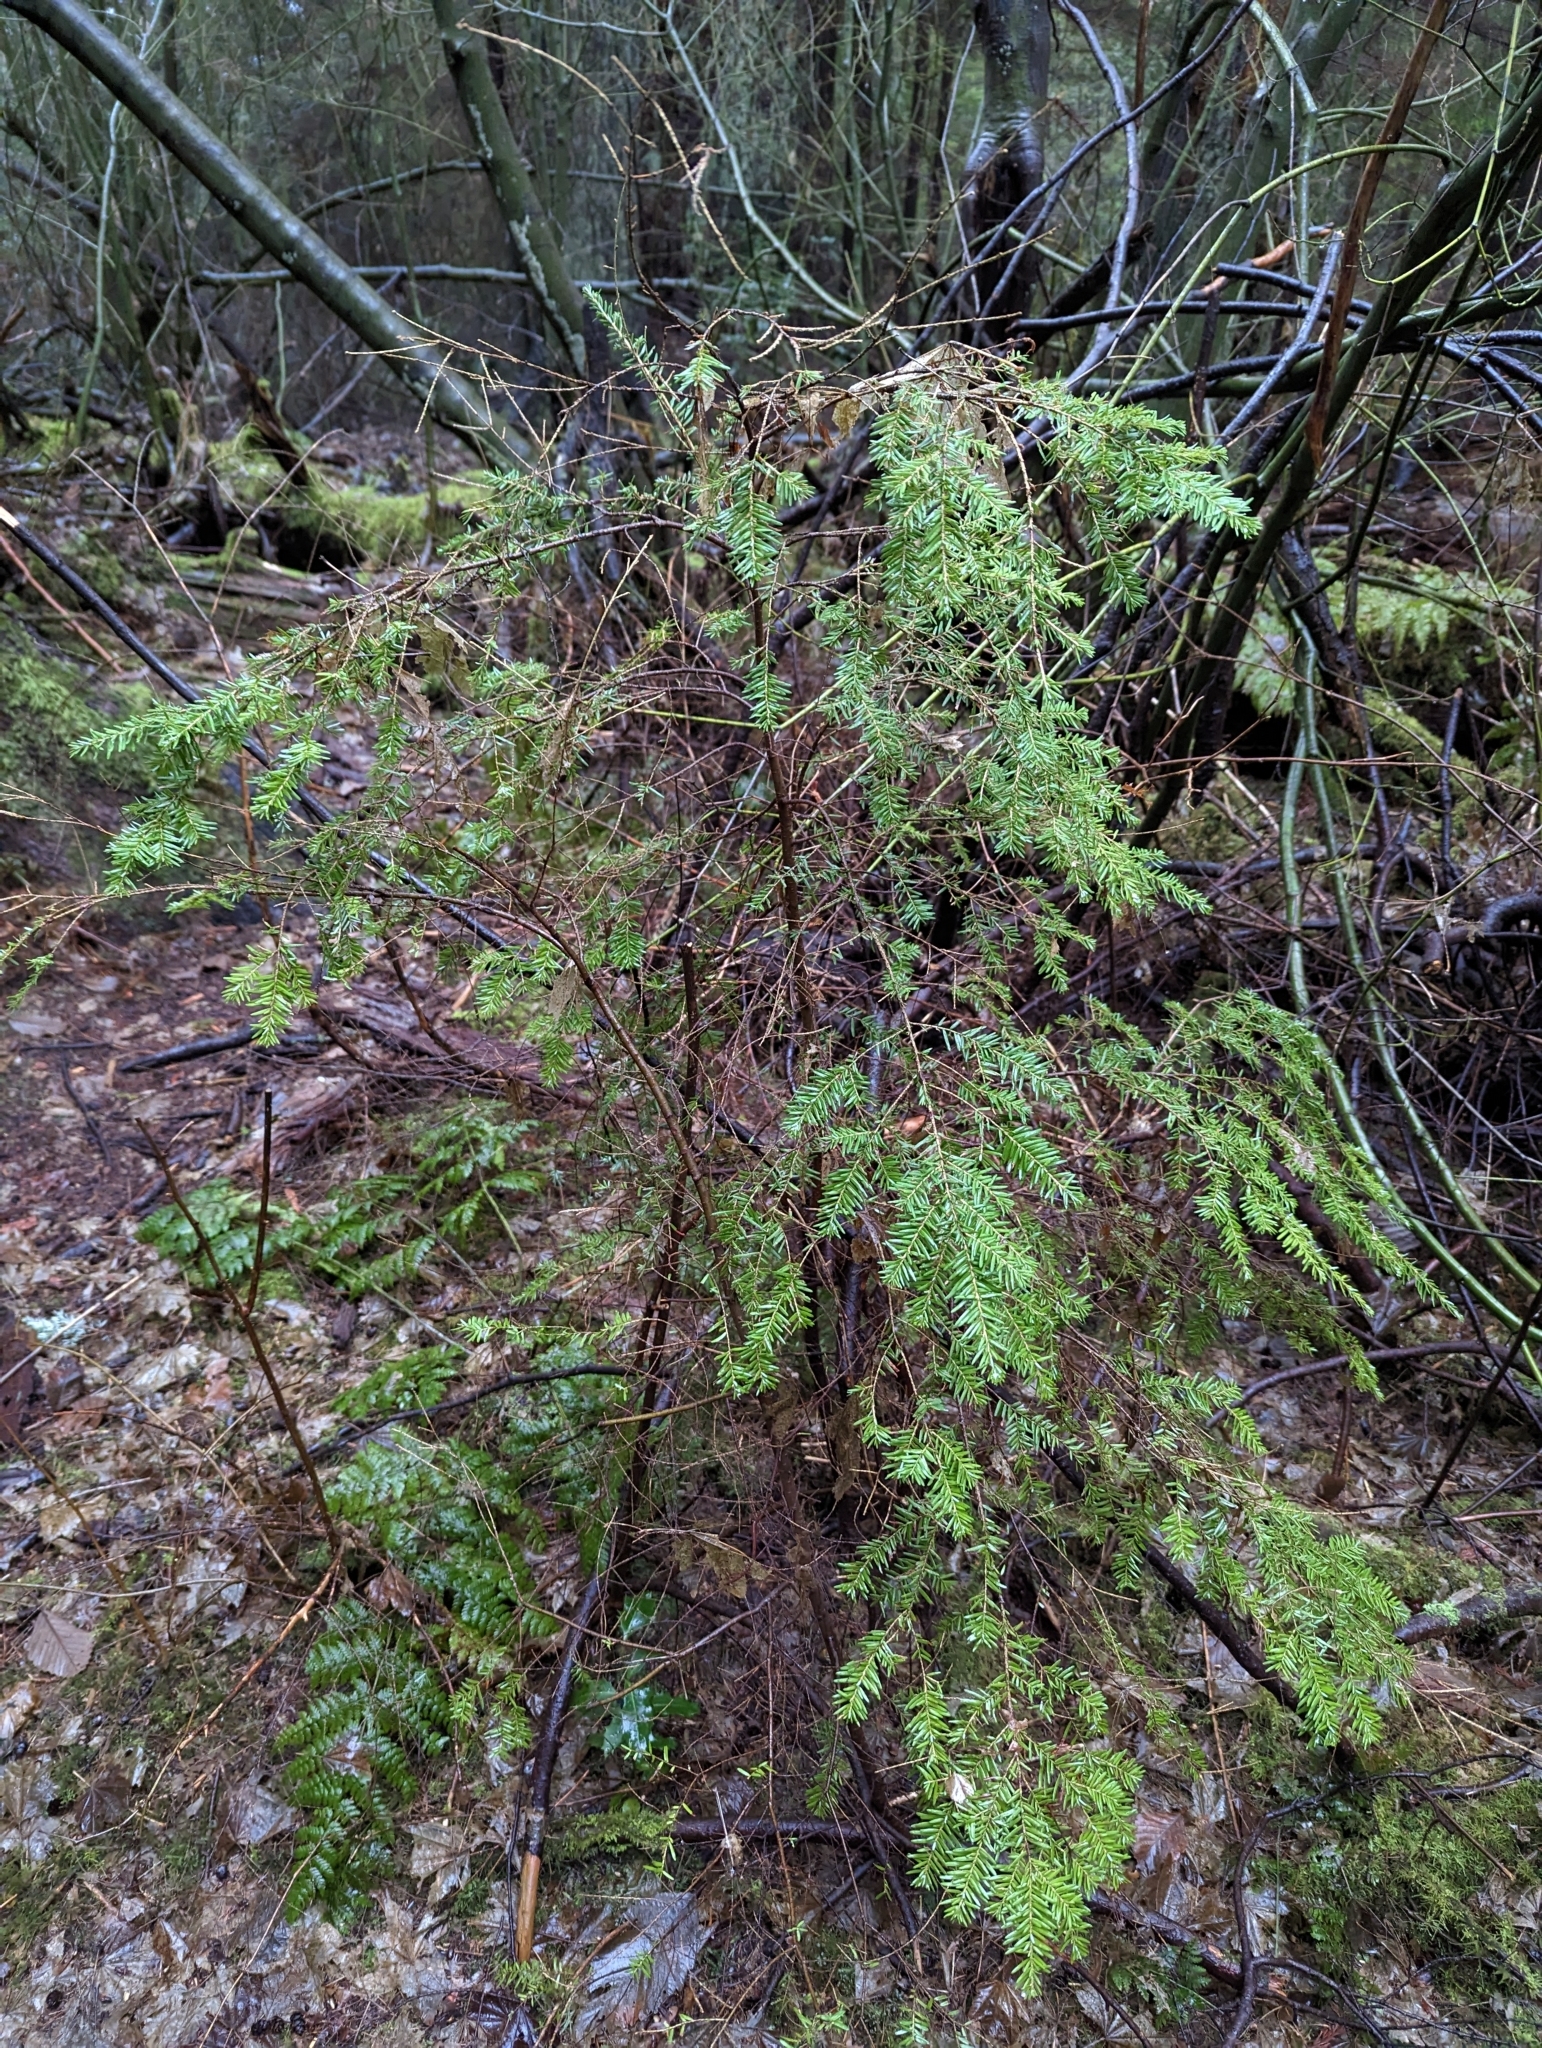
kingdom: Plantae
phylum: Tracheophyta
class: Pinopsida
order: Pinales
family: Pinaceae
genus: Tsuga
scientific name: Tsuga heterophylla
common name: Western hemlock
